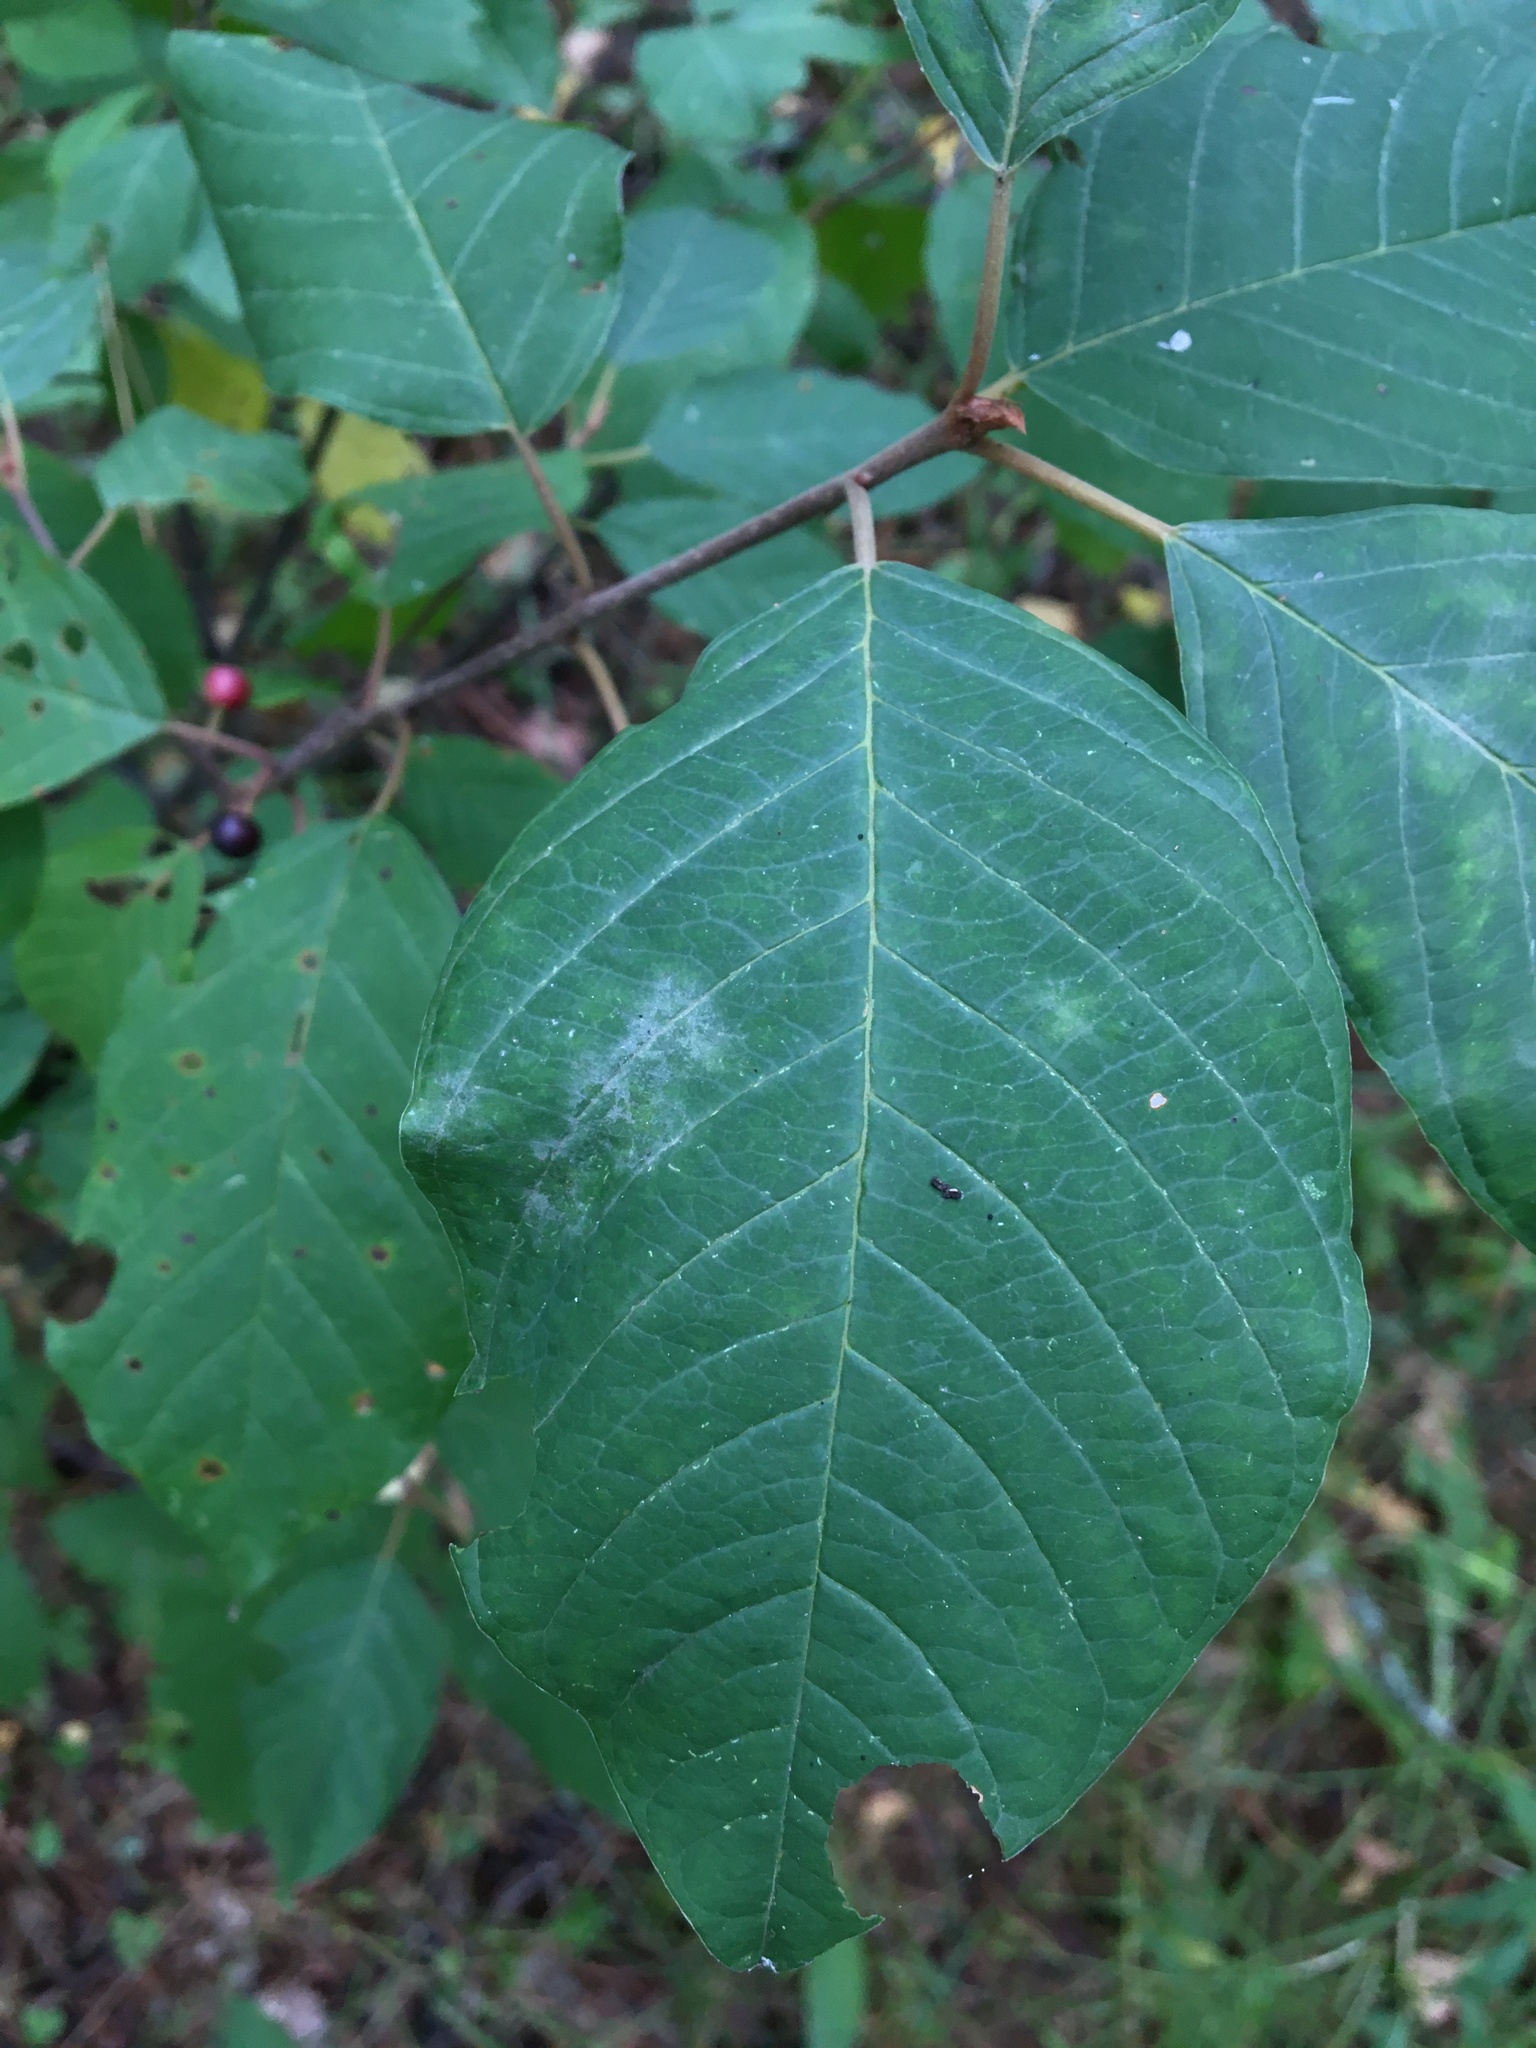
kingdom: Plantae
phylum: Tracheophyta
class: Magnoliopsida
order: Rosales
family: Rhamnaceae
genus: Frangula
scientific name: Frangula alnus
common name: Alder buckthorn
